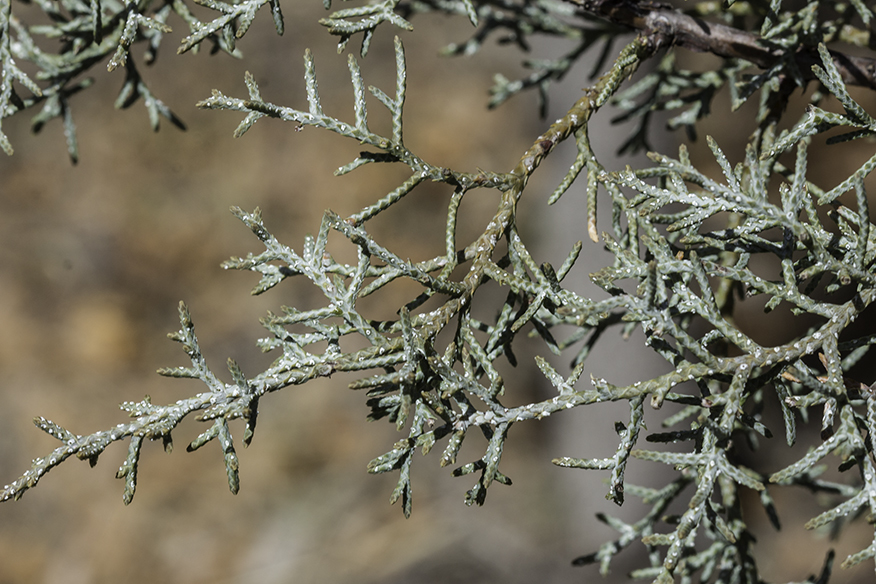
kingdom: Plantae
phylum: Tracheophyta
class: Pinopsida
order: Pinales
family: Cupressaceae
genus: Juniperus
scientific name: Juniperus deppeana
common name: Alligator juniper
